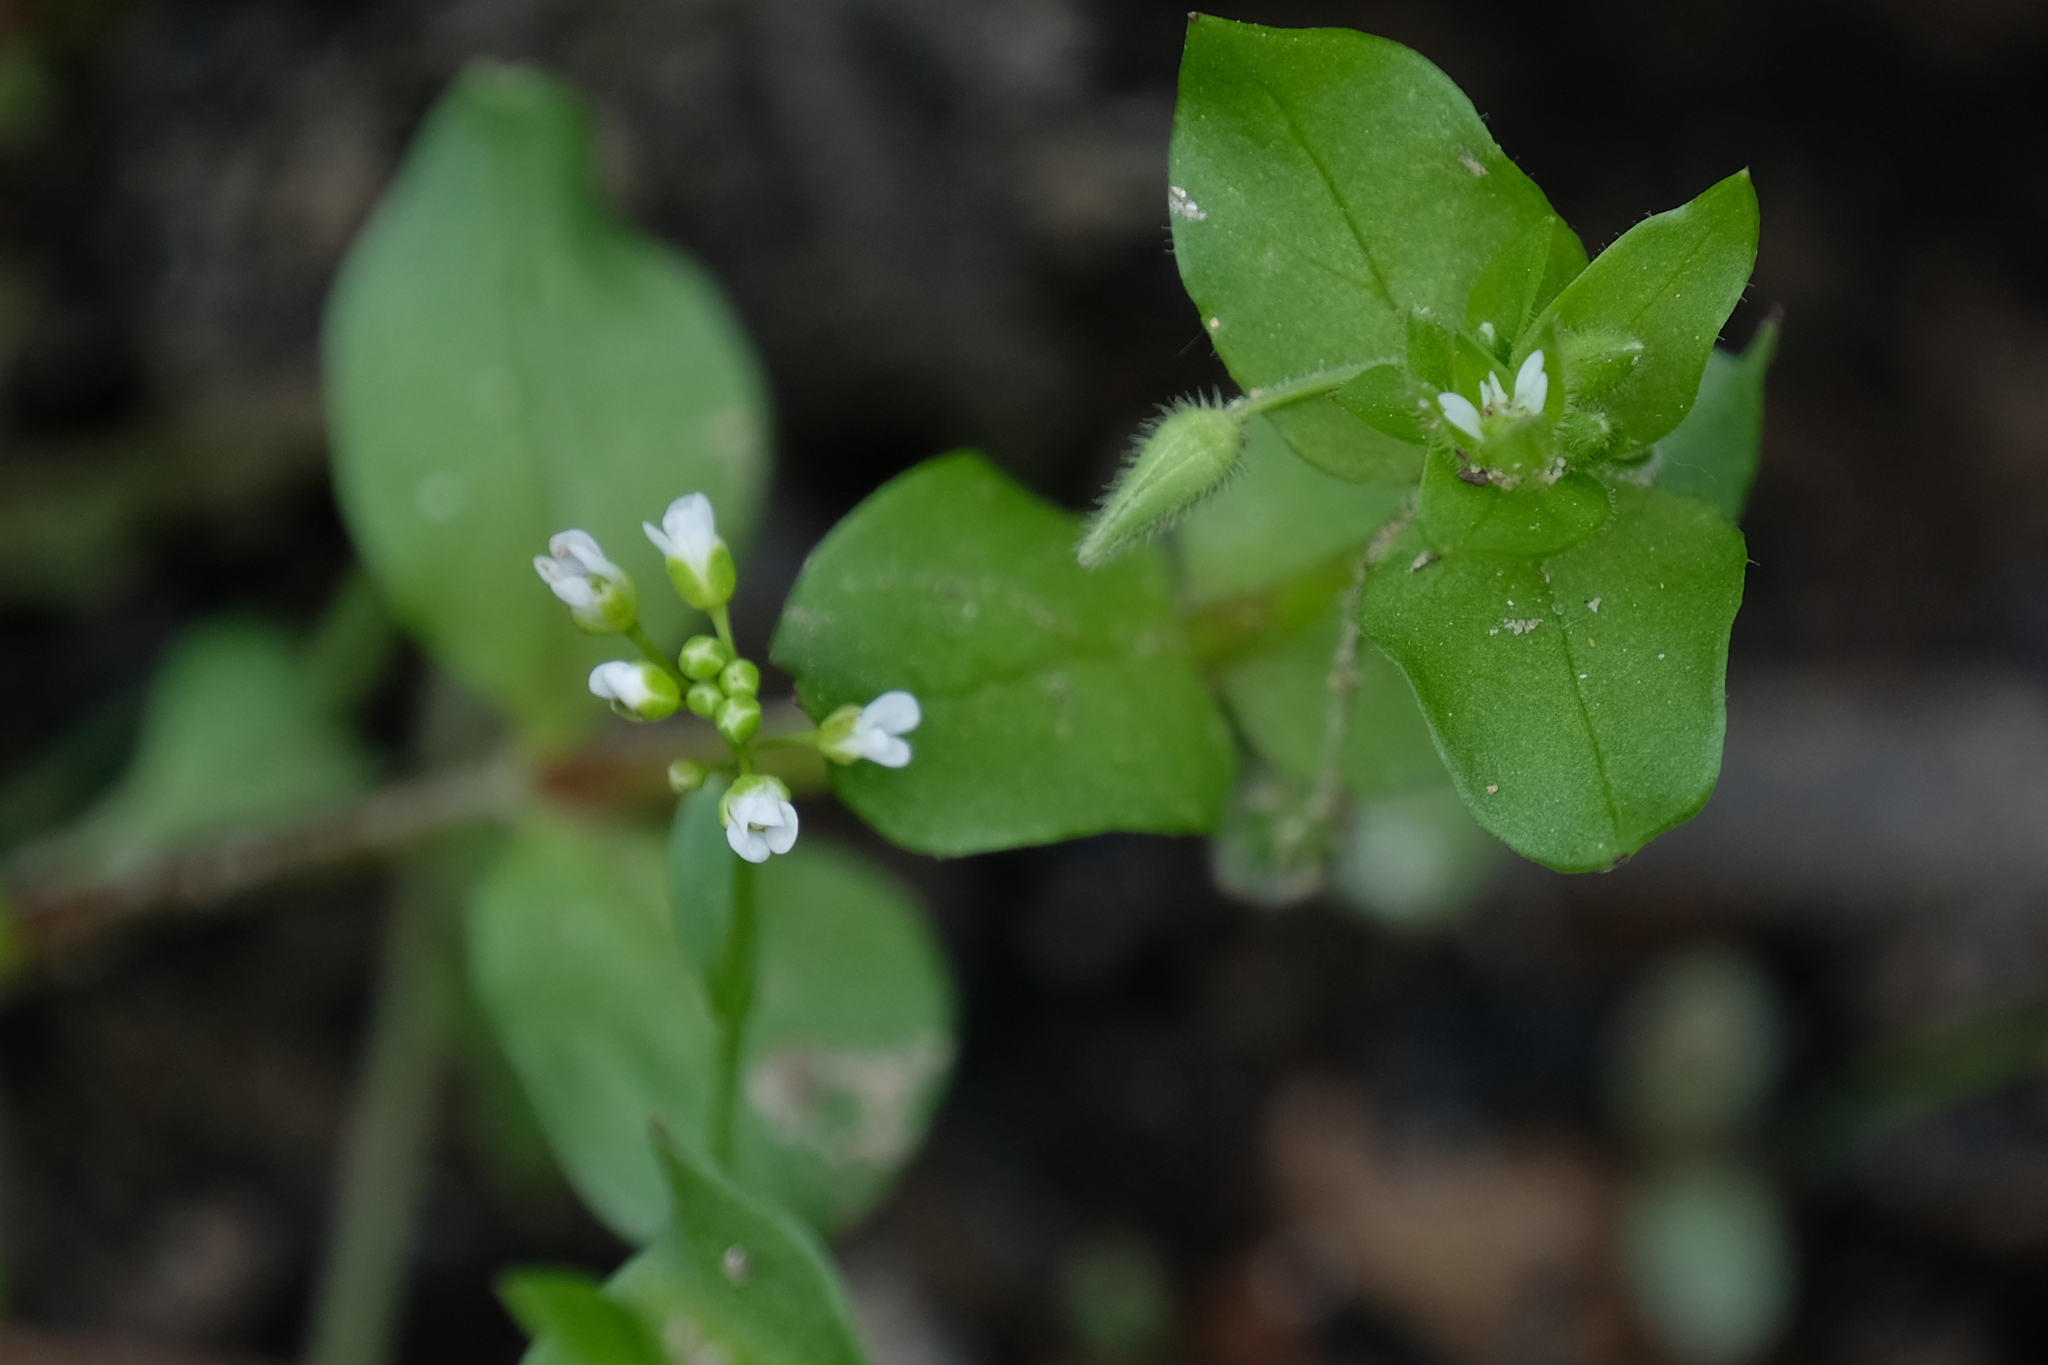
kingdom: Plantae
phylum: Tracheophyta
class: Magnoliopsida
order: Caryophyllales
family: Caryophyllaceae
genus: Stellaria
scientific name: Stellaria media
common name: Common chickweed
